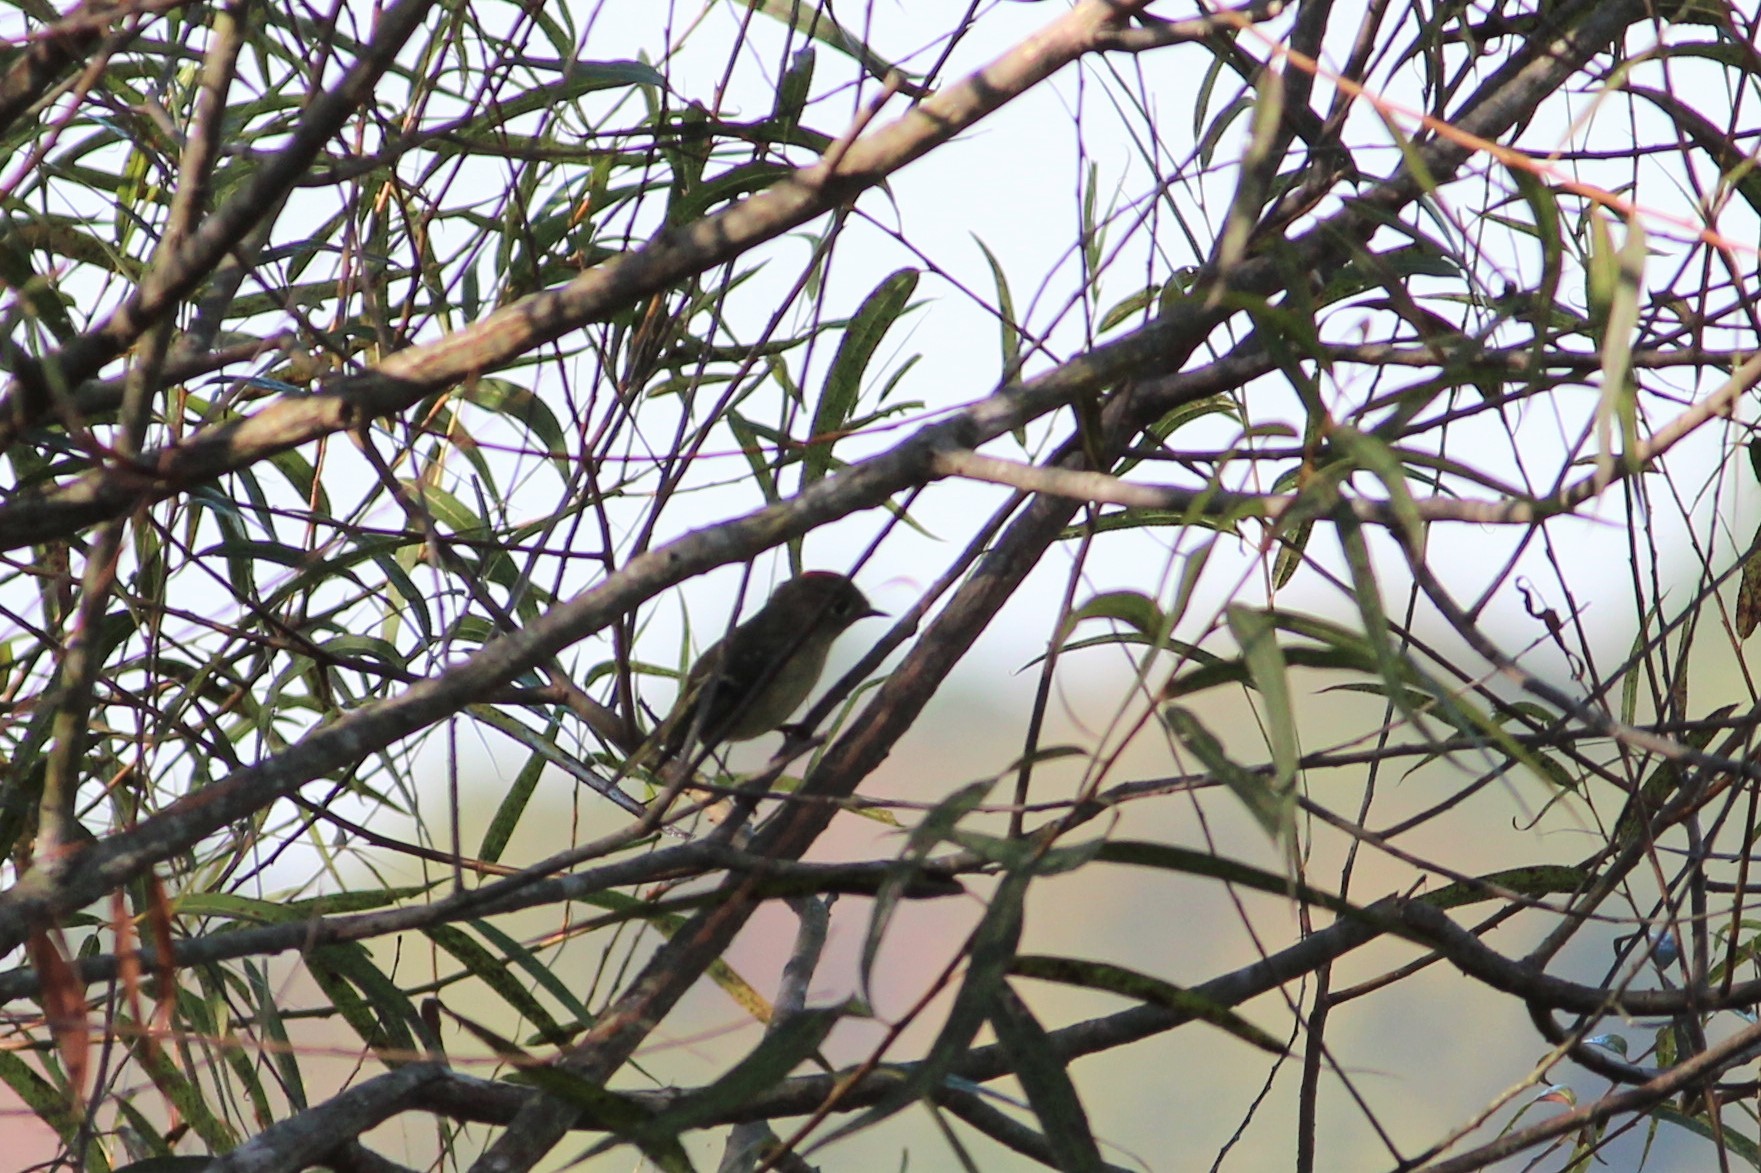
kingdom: Animalia
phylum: Chordata
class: Aves
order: Passeriformes
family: Regulidae
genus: Regulus
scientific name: Regulus calendula
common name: Ruby-crowned kinglet
